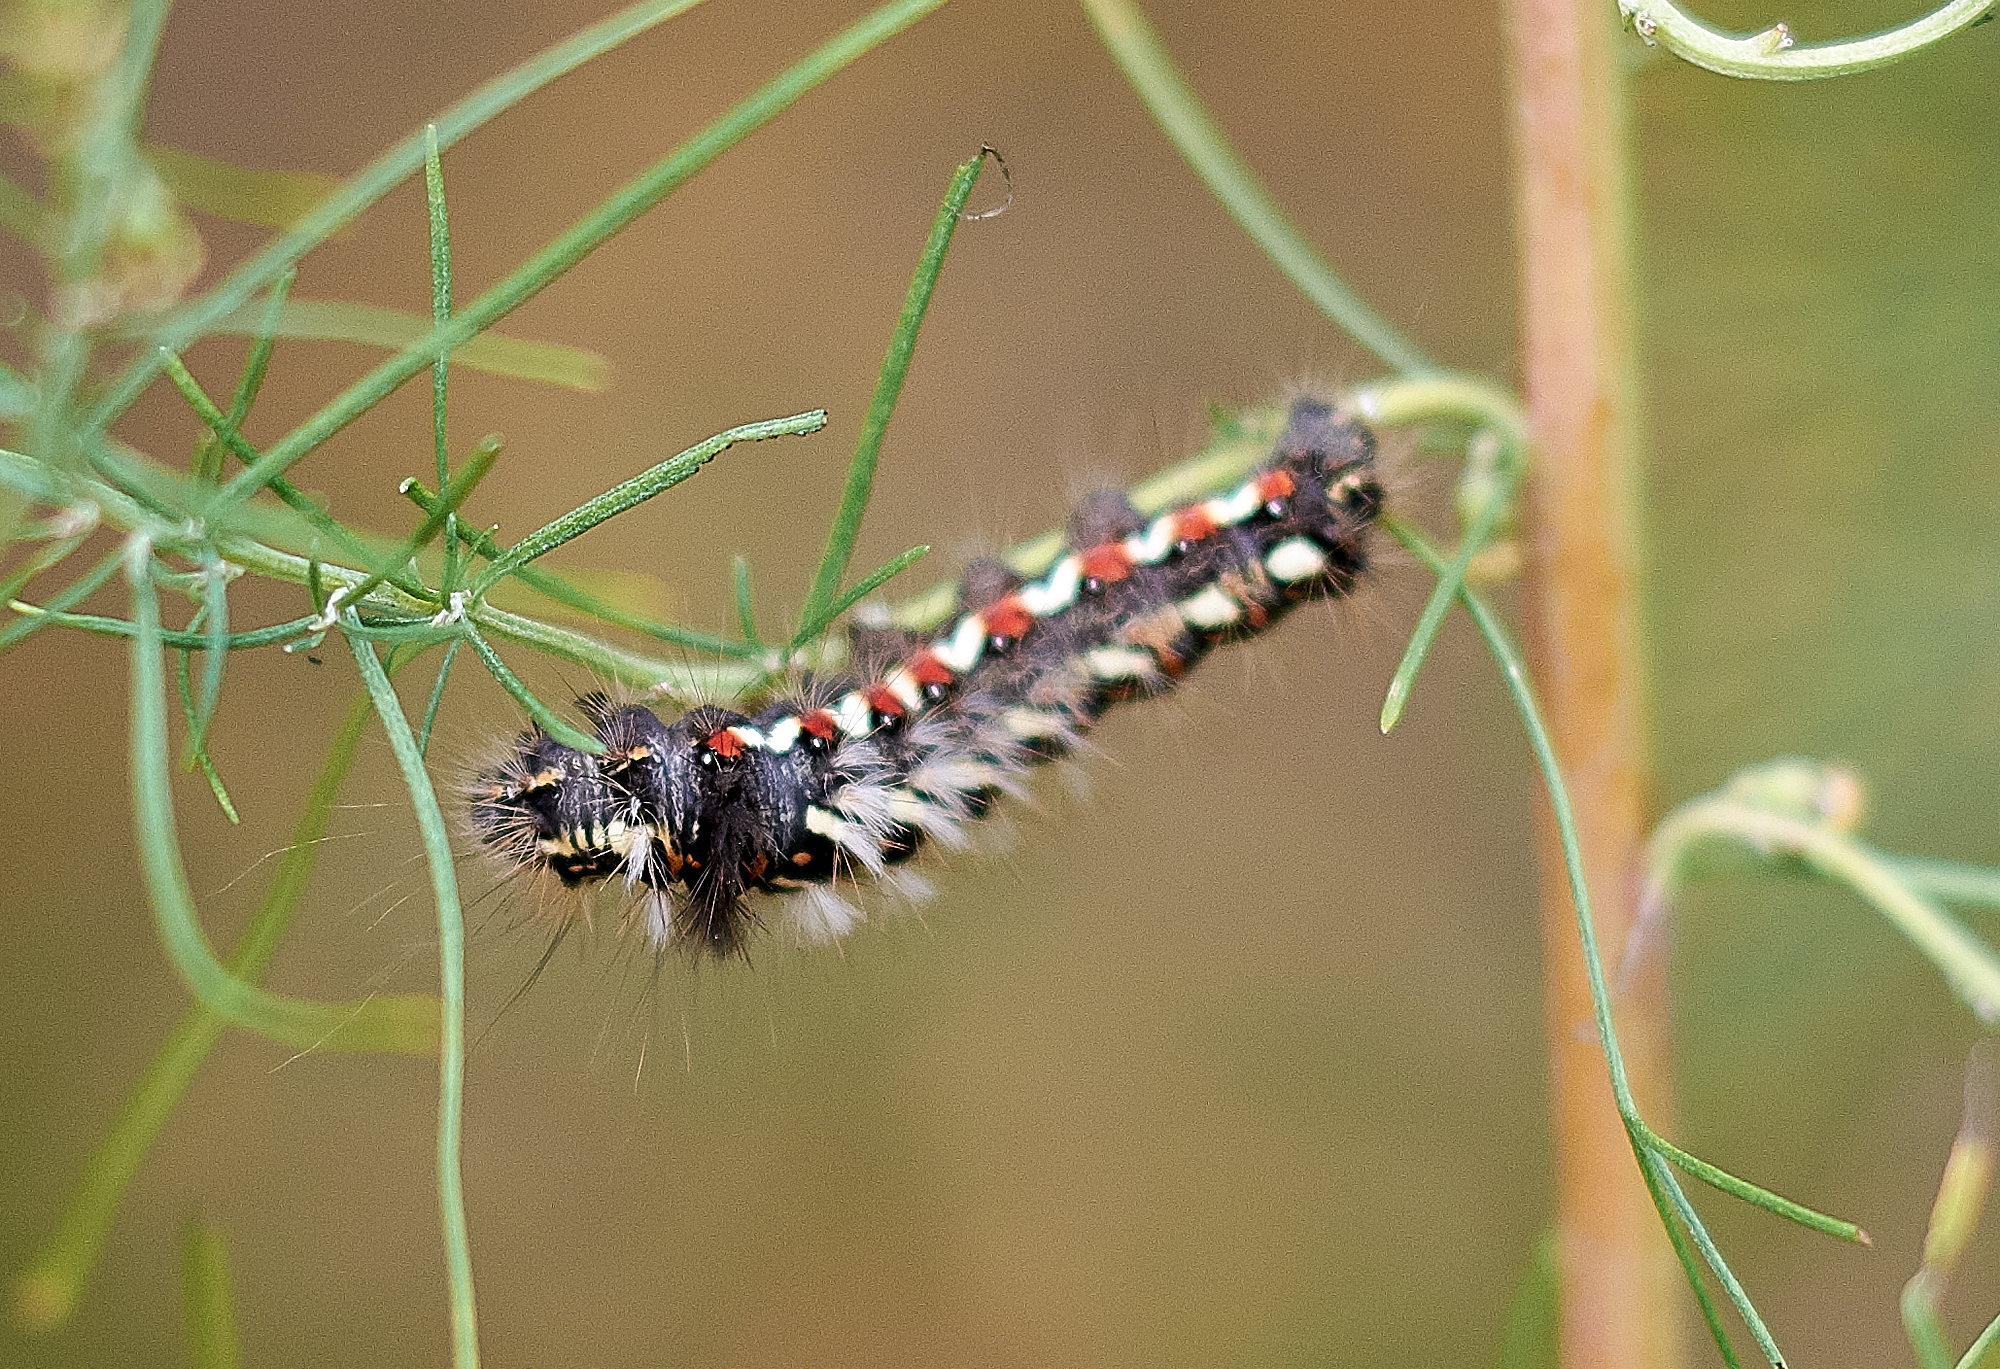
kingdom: Animalia
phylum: Arthropoda
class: Insecta
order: Lepidoptera
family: Noctuidae
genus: Acronicta
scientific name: Acronicta rumicis
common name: Knot grass
